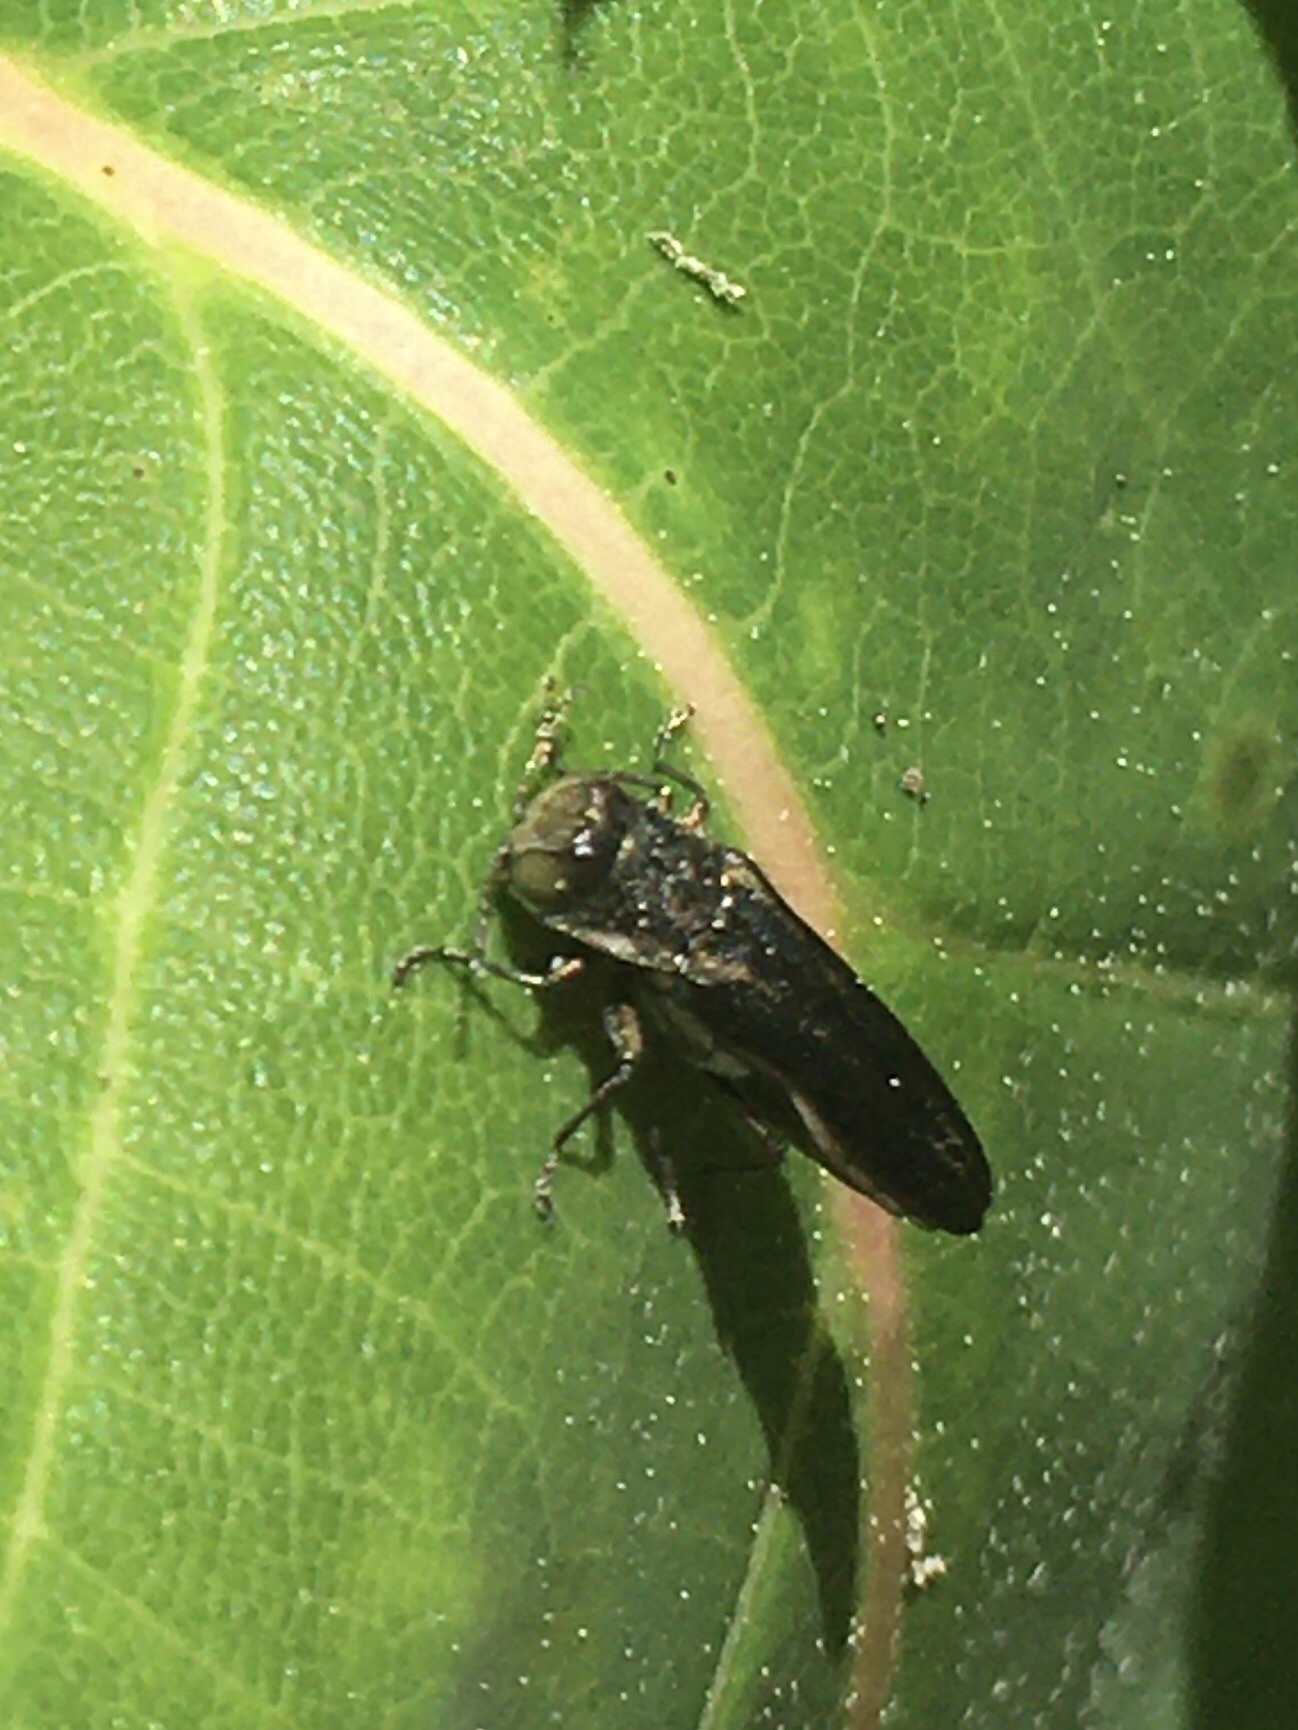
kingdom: Animalia
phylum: Arthropoda
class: Insecta
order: Coleoptera
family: Buprestidae
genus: Agrilus
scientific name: Agrilus carpini
